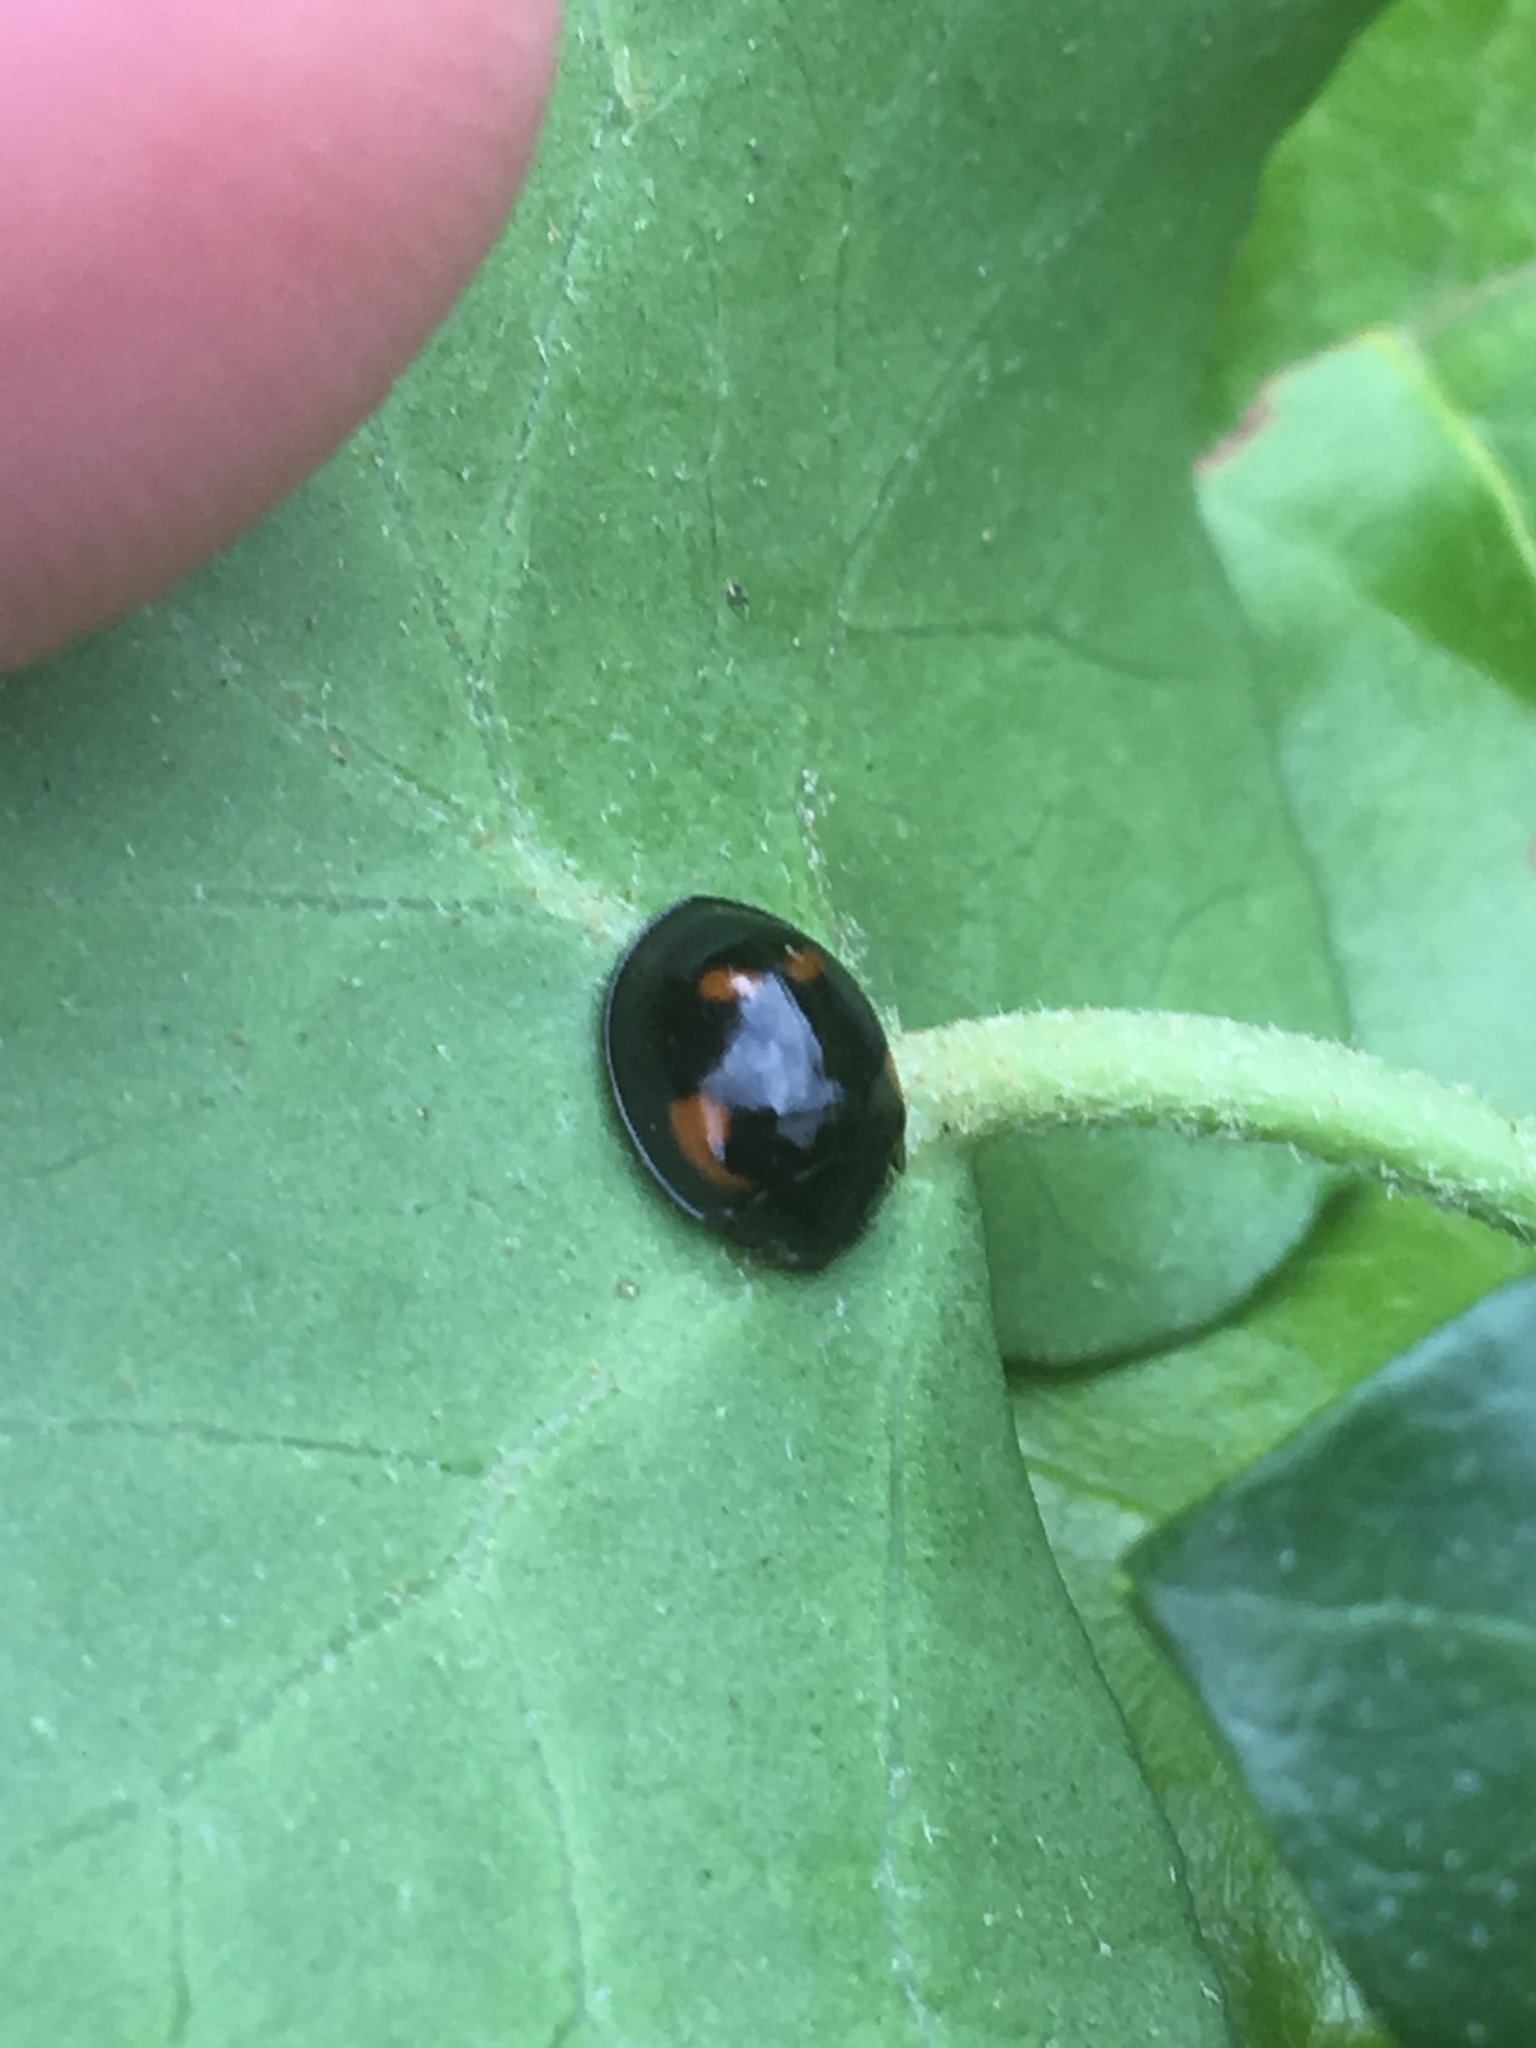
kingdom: Animalia
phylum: Arthropoda
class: Insecta
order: Coleoptera
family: Coccinellidae
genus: Brumus
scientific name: Brumus quadripustulatus
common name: Ladybird beetle
